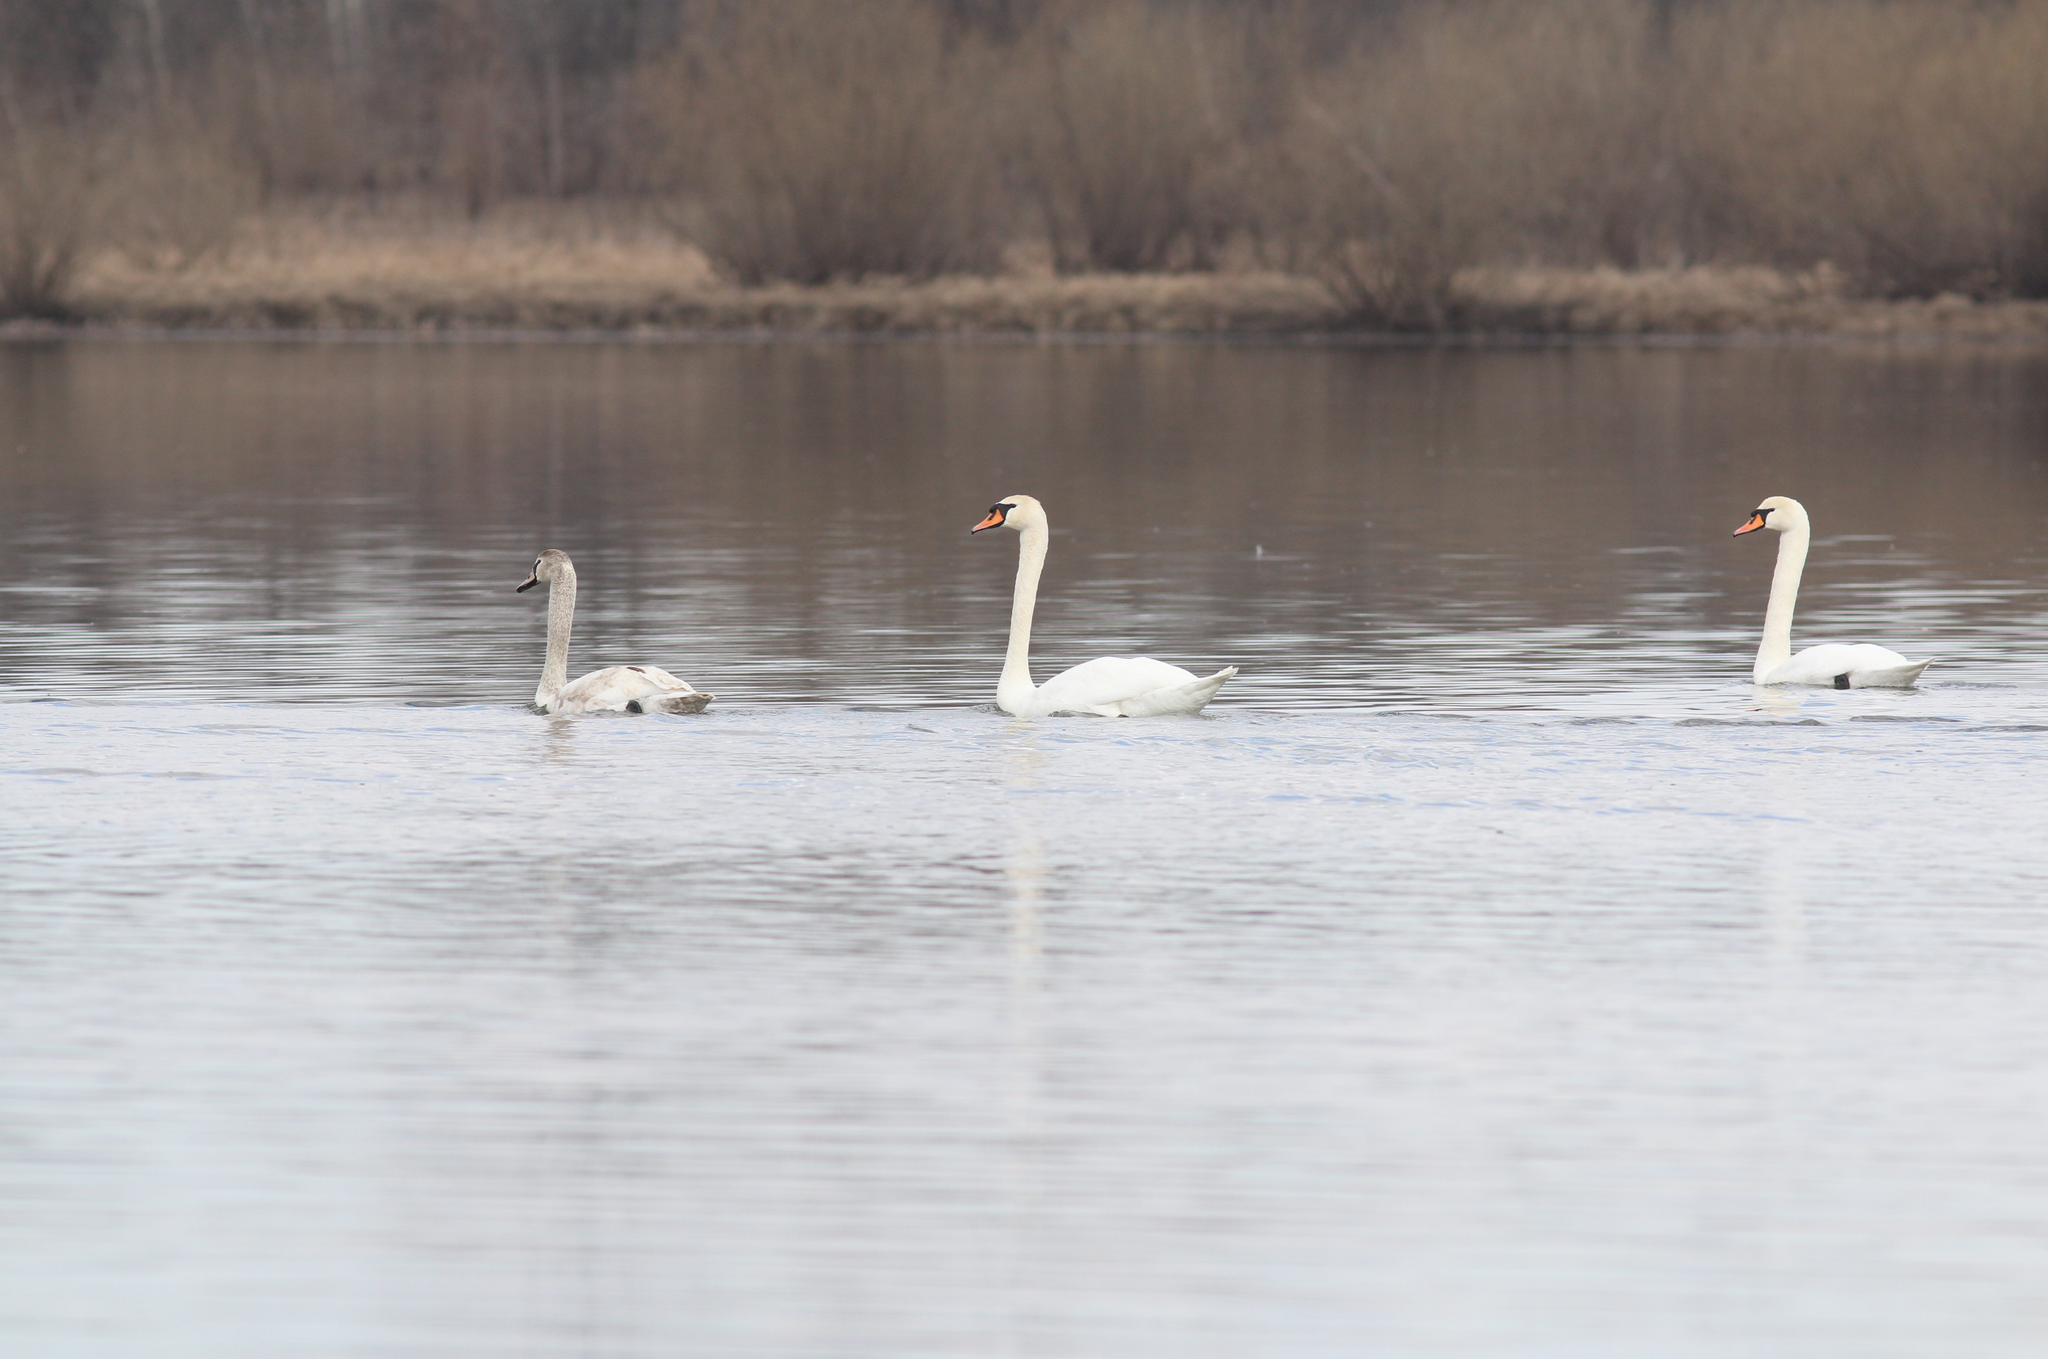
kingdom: Animalia
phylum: Chordata
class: Aves
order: Anseriformes
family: Anatidae
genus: Cygnus
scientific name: Cygnus olor
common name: Mute swan
